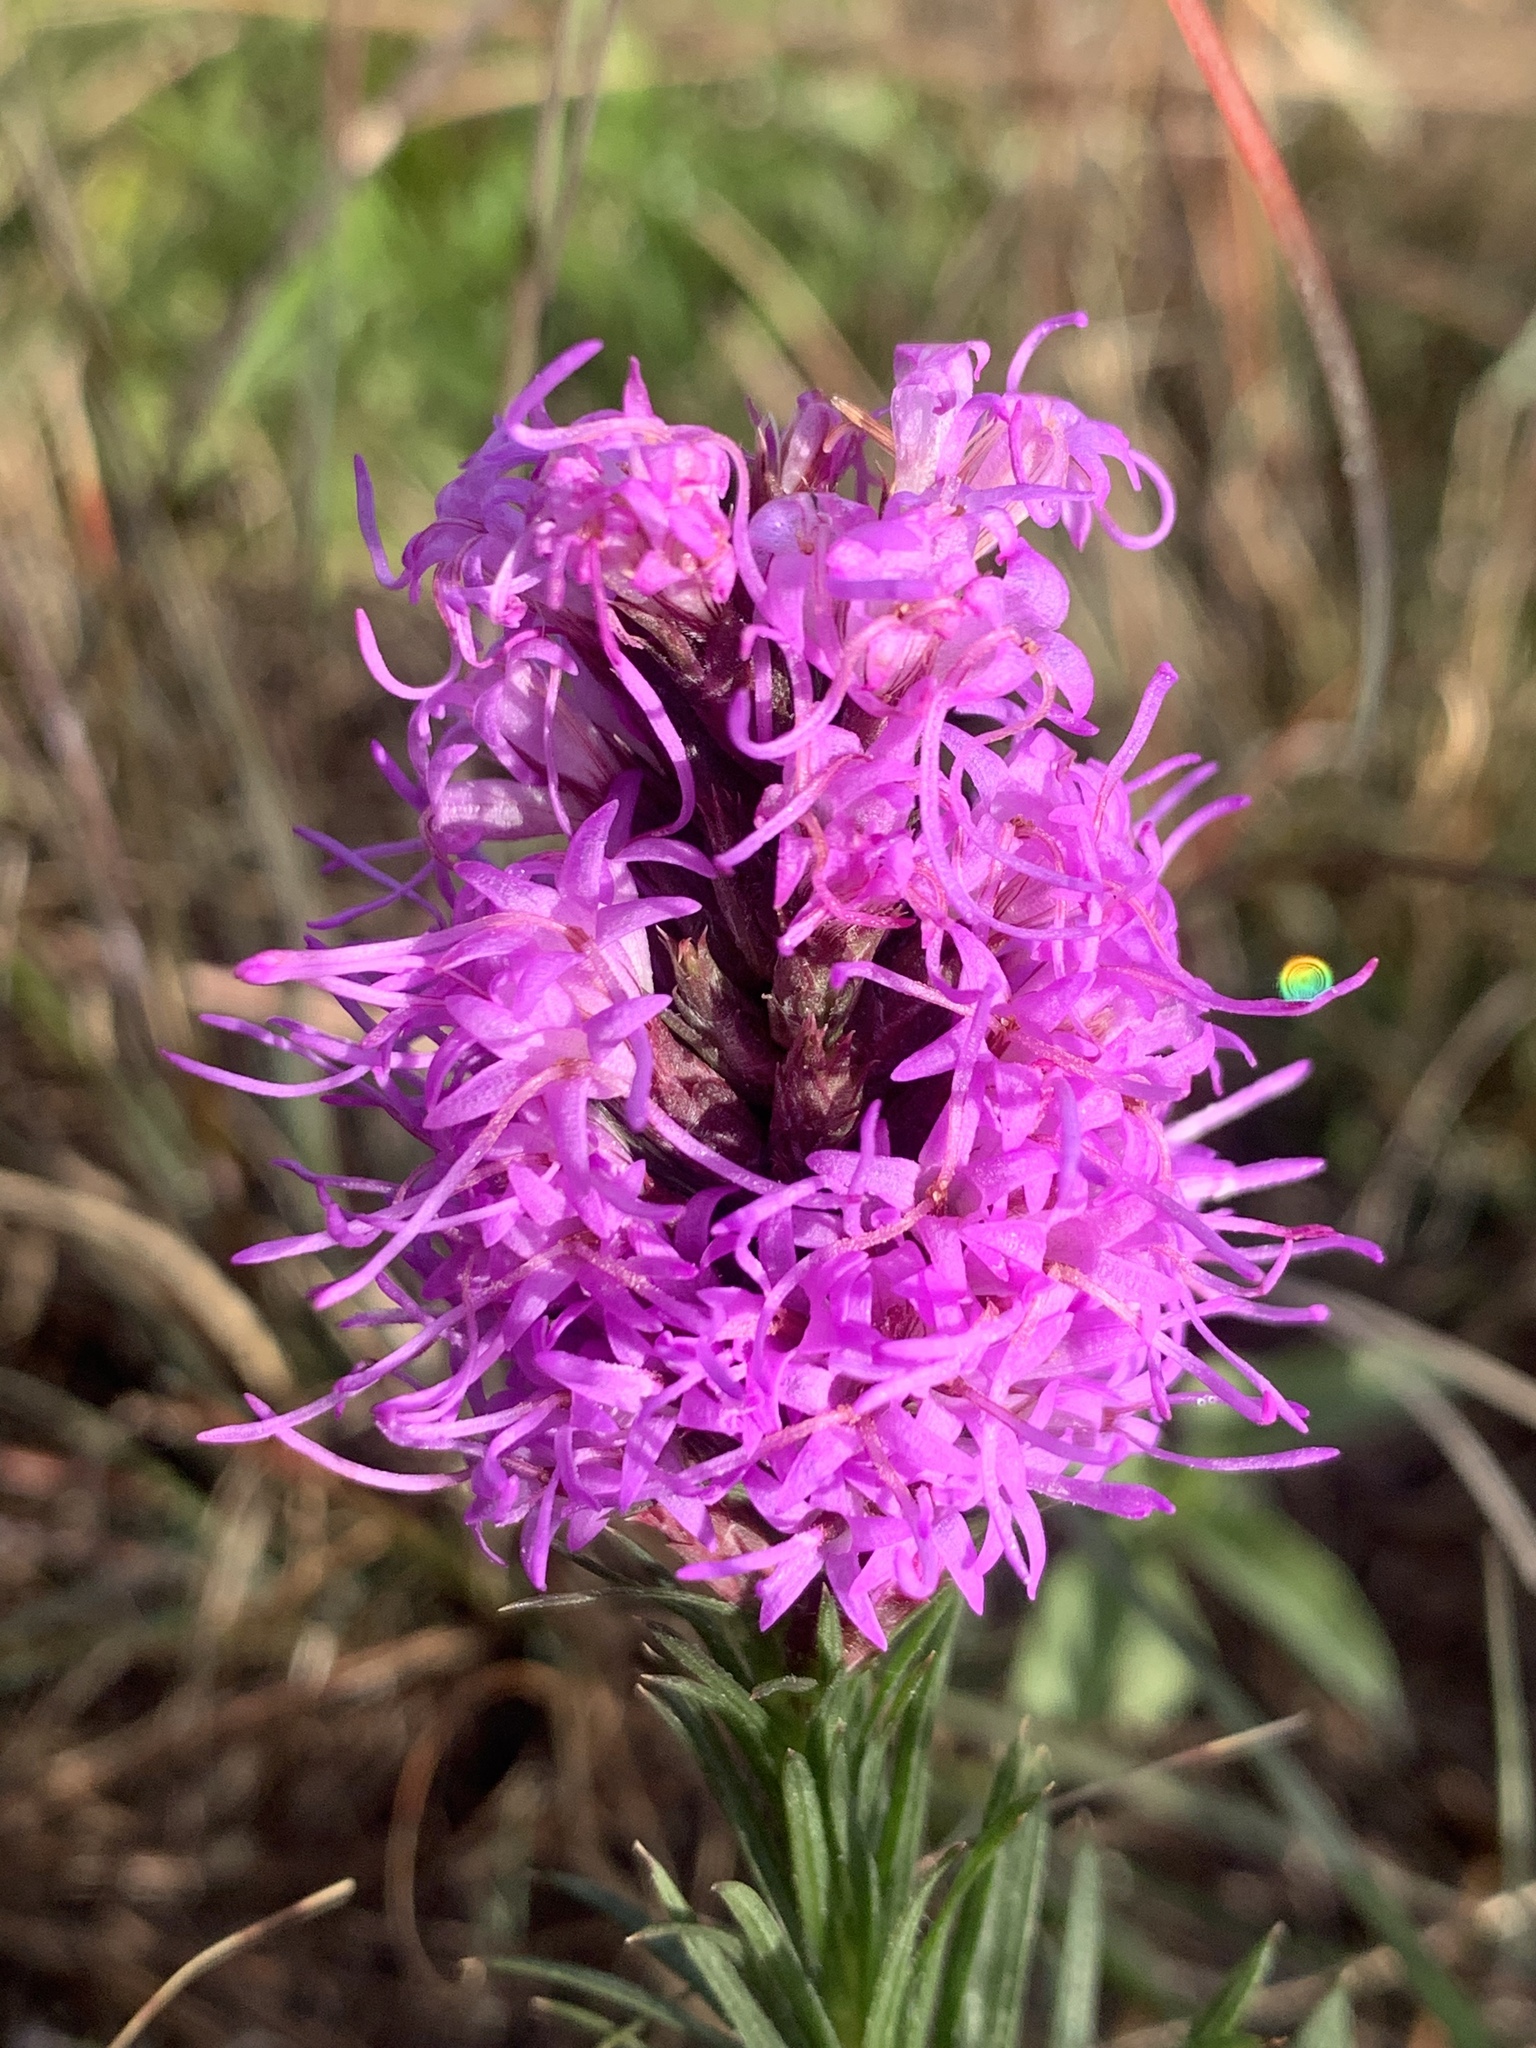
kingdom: Plantae
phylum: Tracheophyta
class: Magnoliopsida
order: Asterales
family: Asteraceae
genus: Liatris
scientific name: Liatris punctata
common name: Dotted gayfeather
